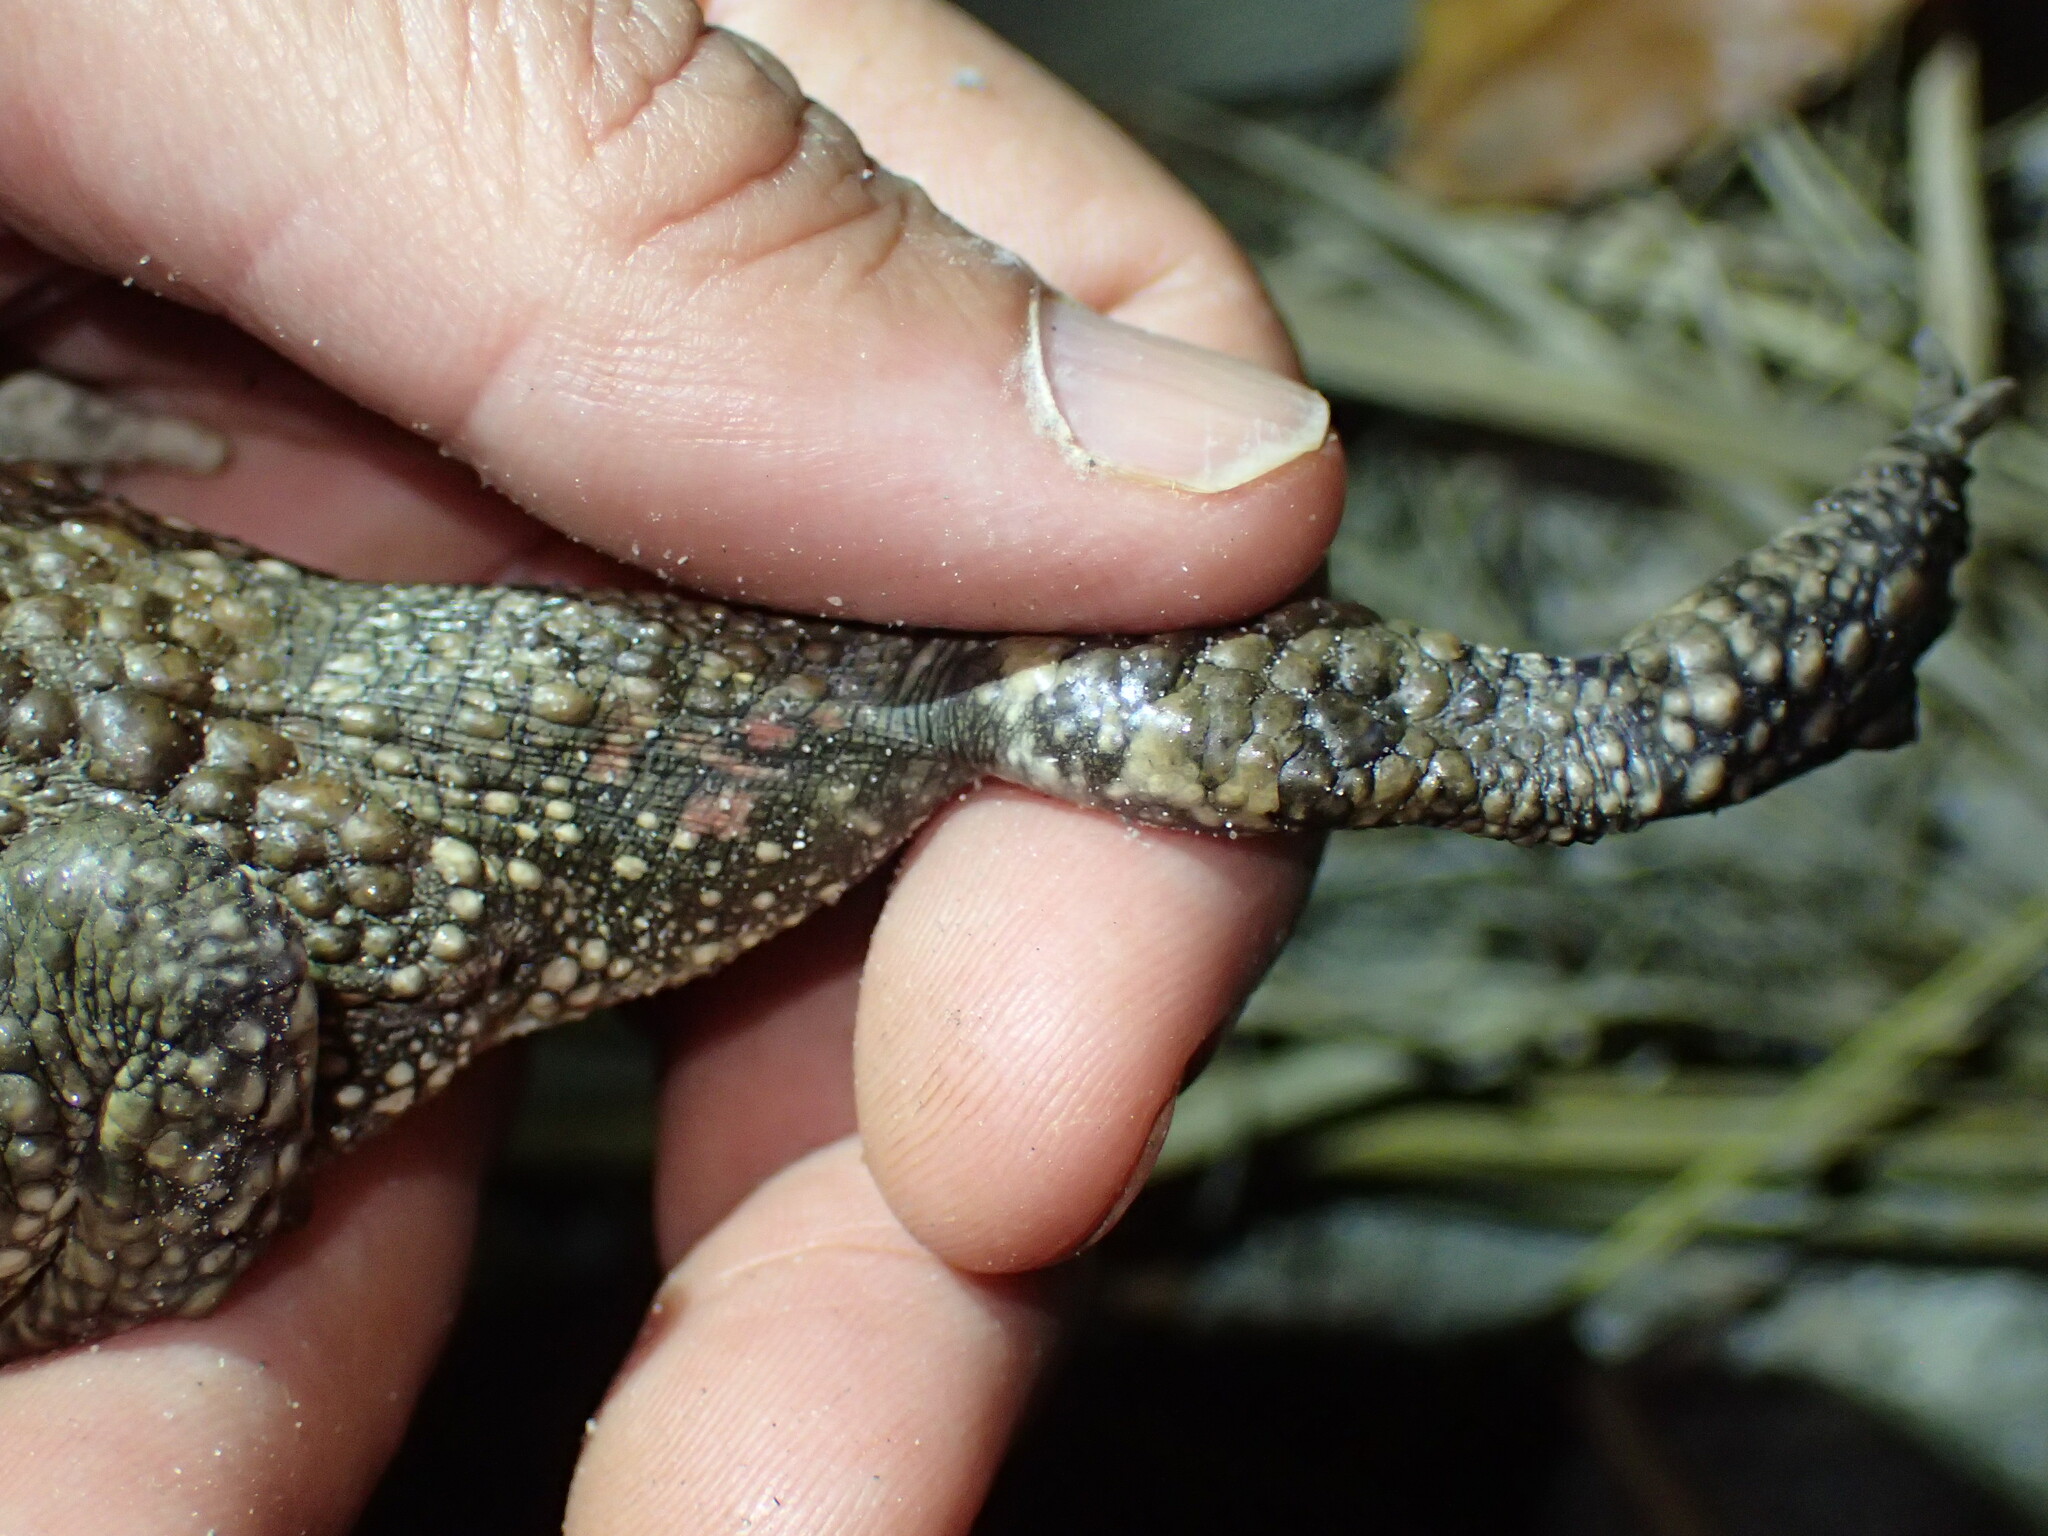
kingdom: Animalia
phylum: Chordata
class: Amphibia
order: Anura
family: Bufonidae
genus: Sclerophrys
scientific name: Sclerophrys gutturalis
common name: African common toad
